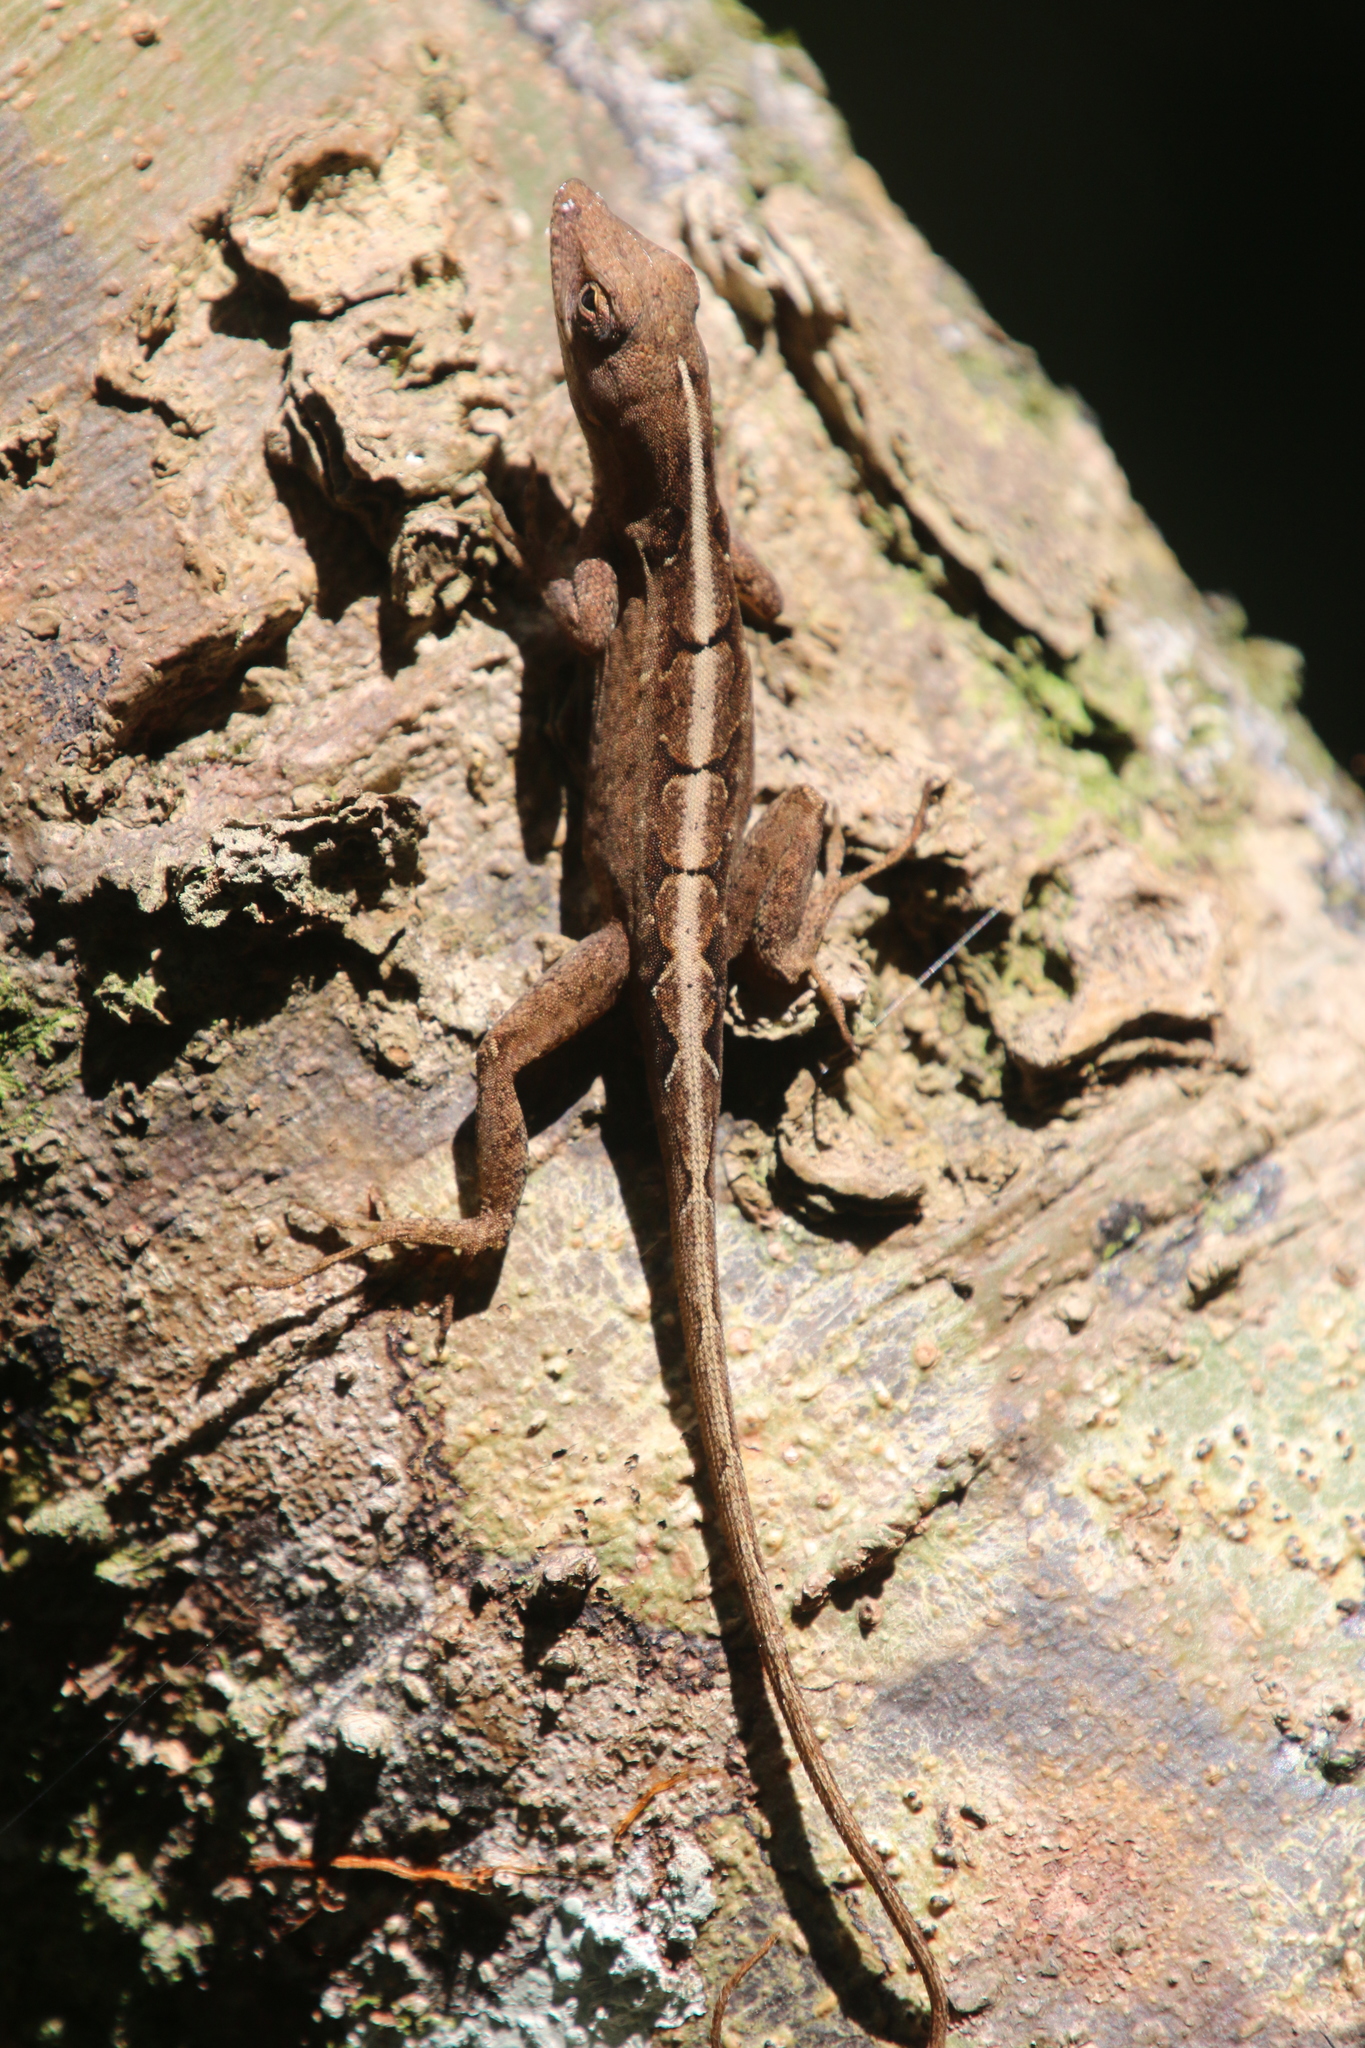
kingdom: Animalia
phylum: Chordata
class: Squamata
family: Dactyloidae
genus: Anolis
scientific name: Anolis sagrei
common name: Brown anole
